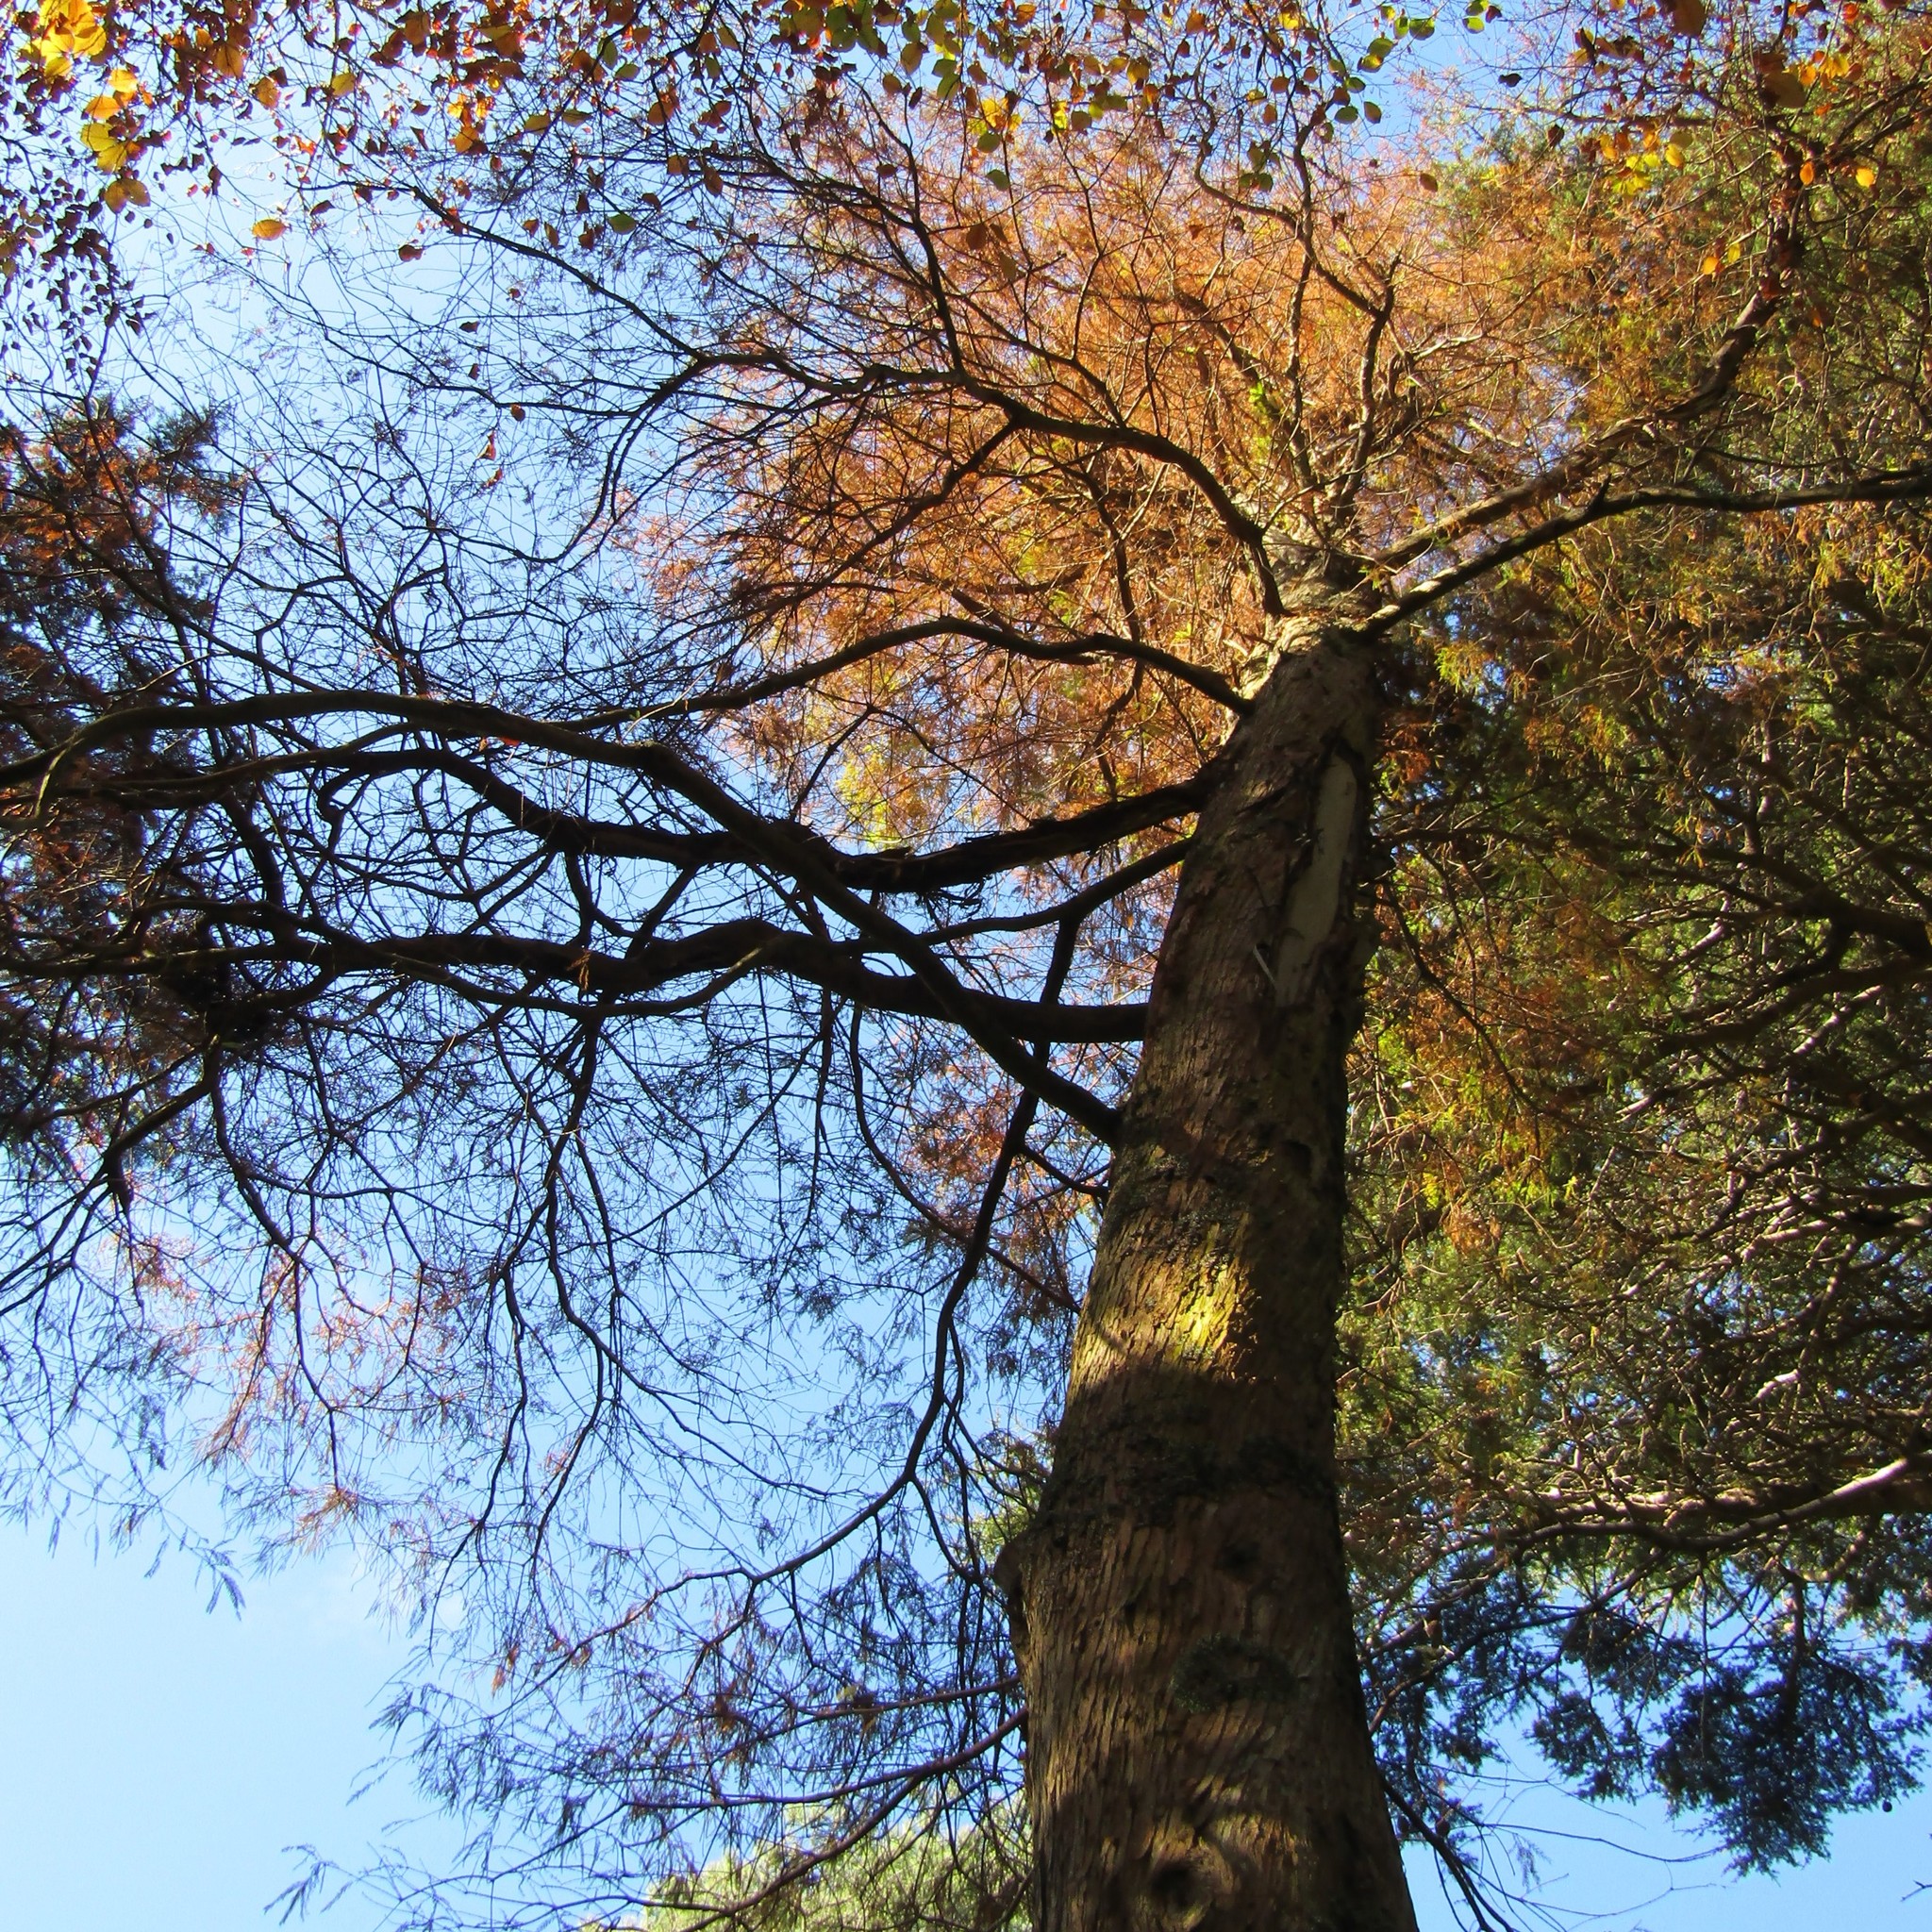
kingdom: Animalia
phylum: Chordata
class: Aves
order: Psittaciformes
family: Psittacidae
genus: Nestor
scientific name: Nestor meridionalis
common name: New zealand kaka
